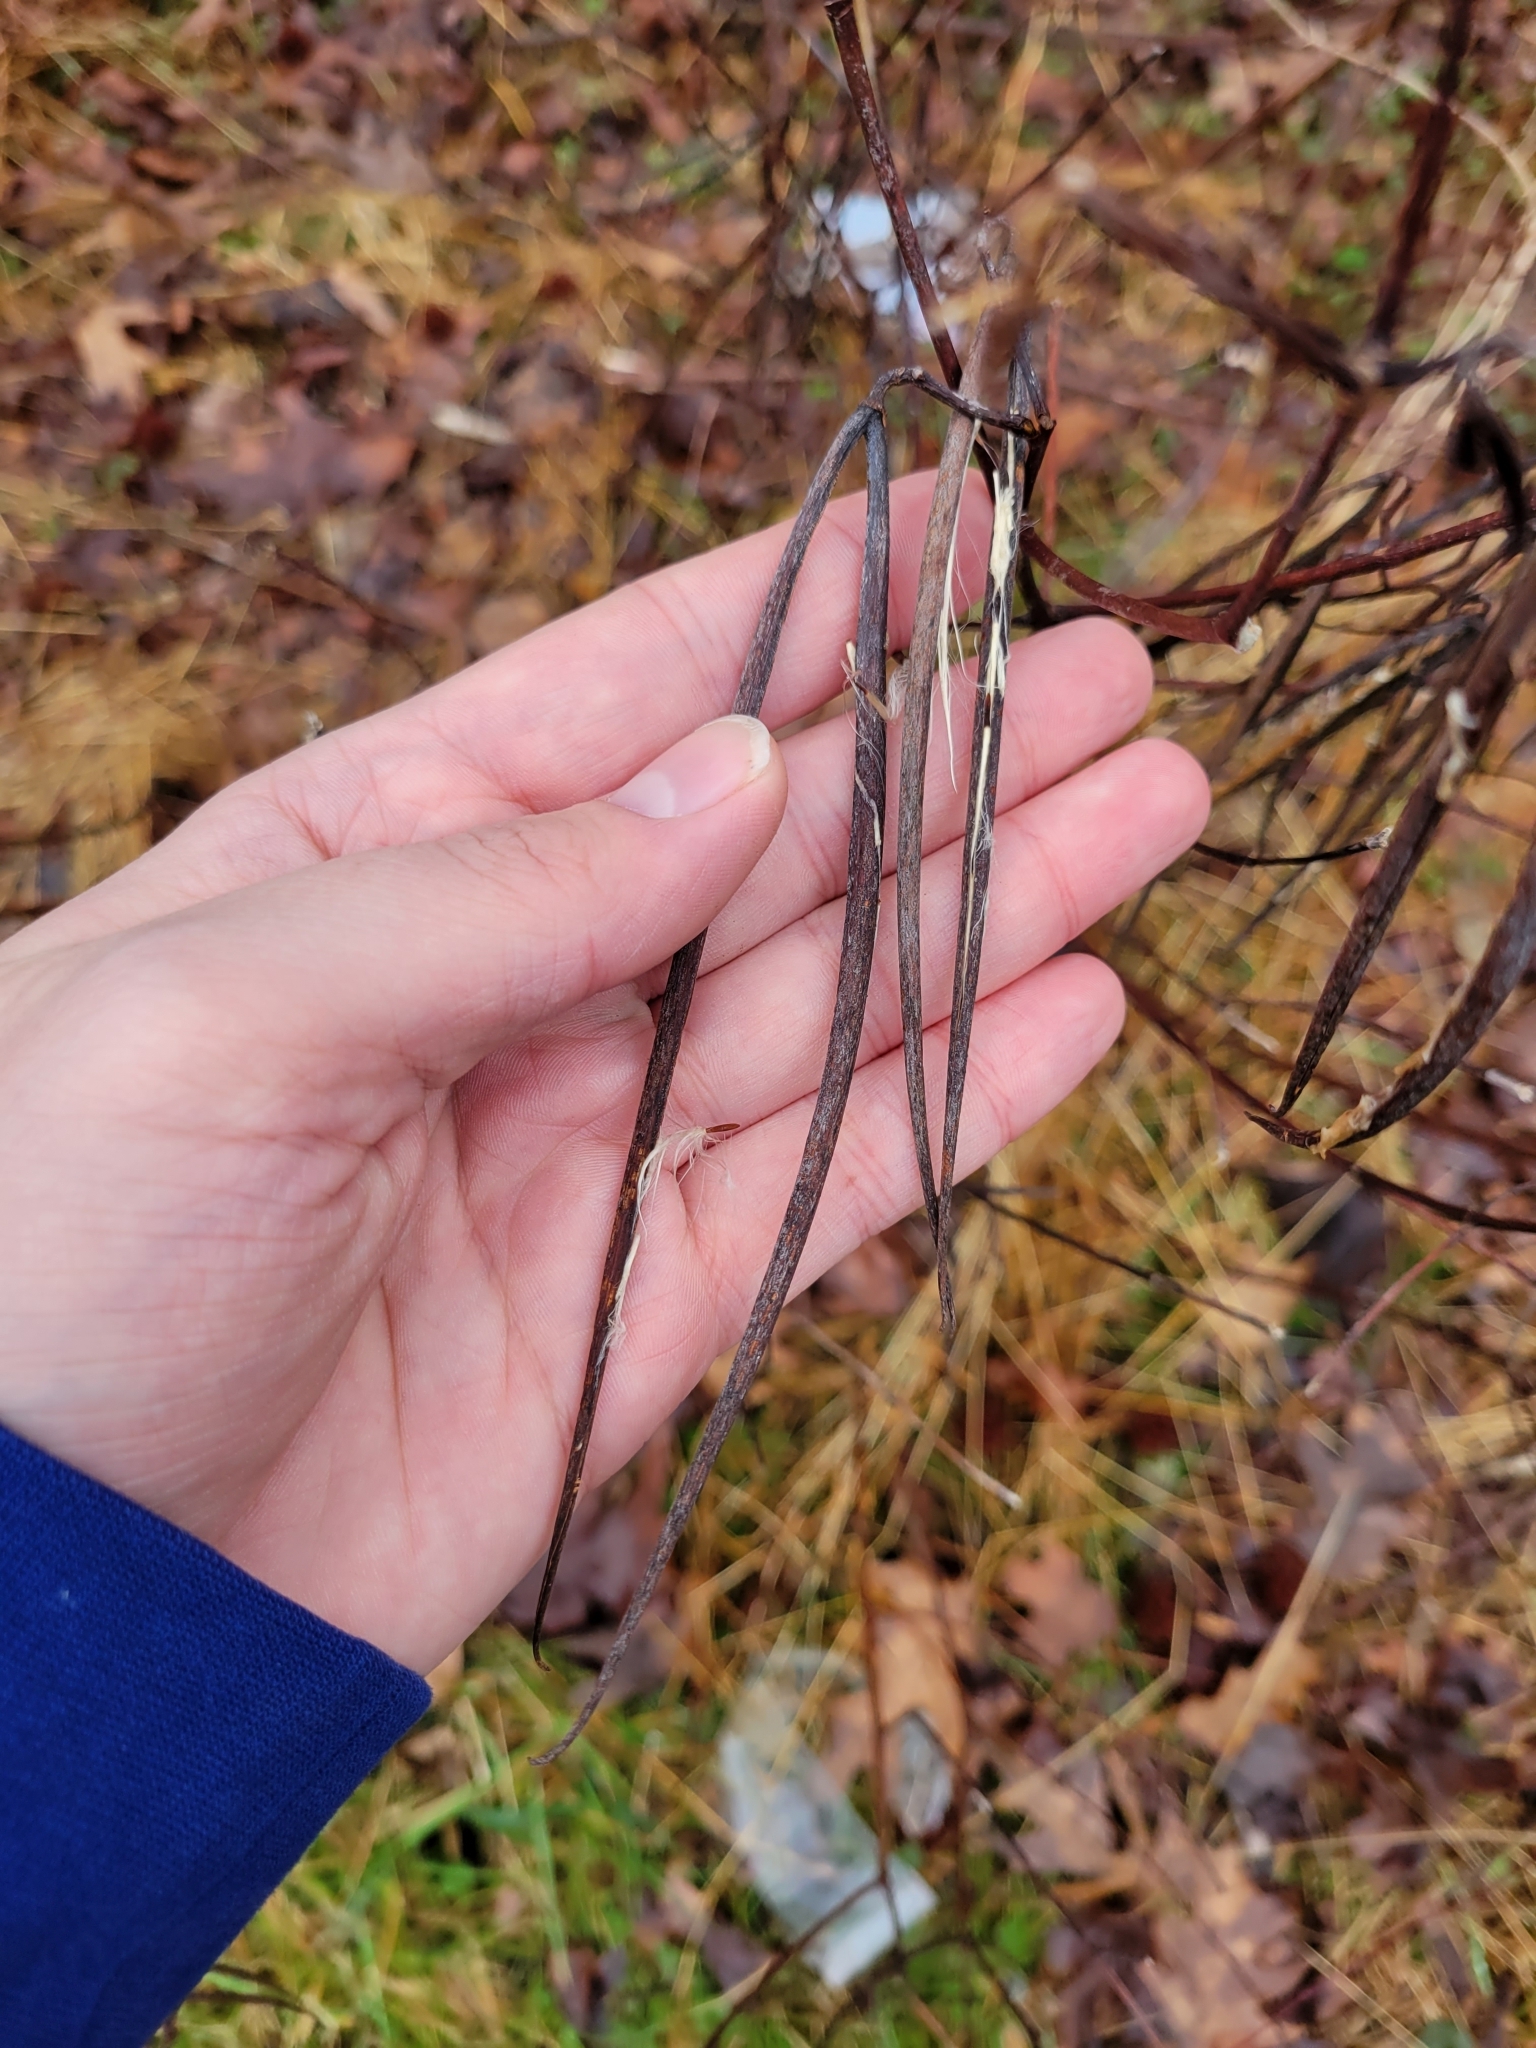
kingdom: Plantae
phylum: Tracheophyta
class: Magnoliopsida
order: Gentianales
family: Apocynaceae
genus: Apocynum
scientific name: Apocynum cannabinum
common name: Hemp dogbane
